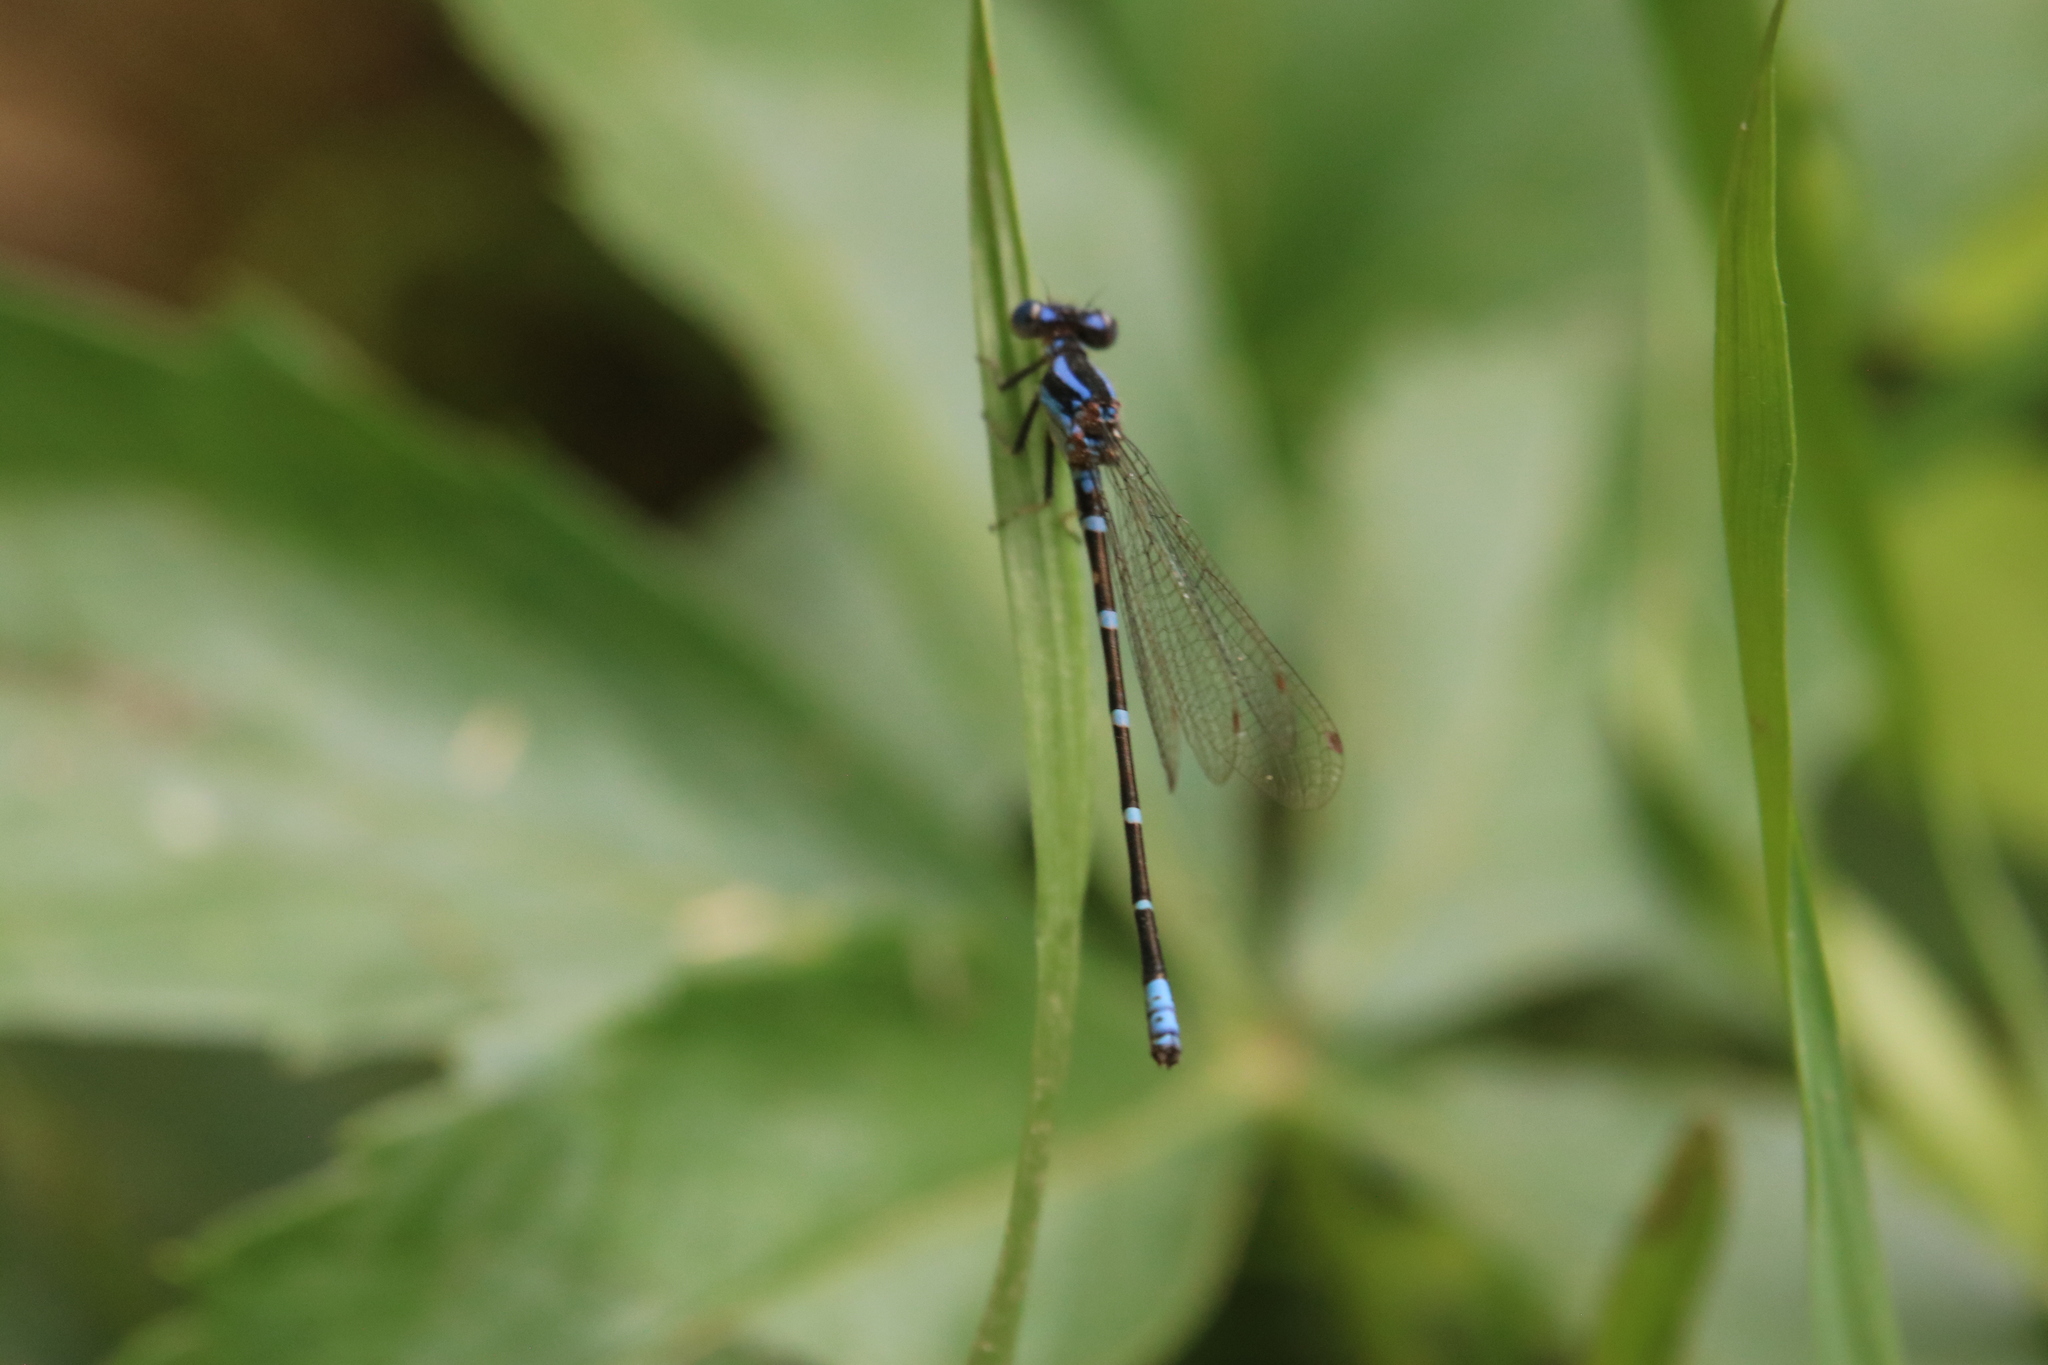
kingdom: Animalia
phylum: Arthropoda
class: Insecta
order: Odonata
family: Coenagrionidae
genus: Argia
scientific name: Argia sedula
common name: Blue-ringed dancer
